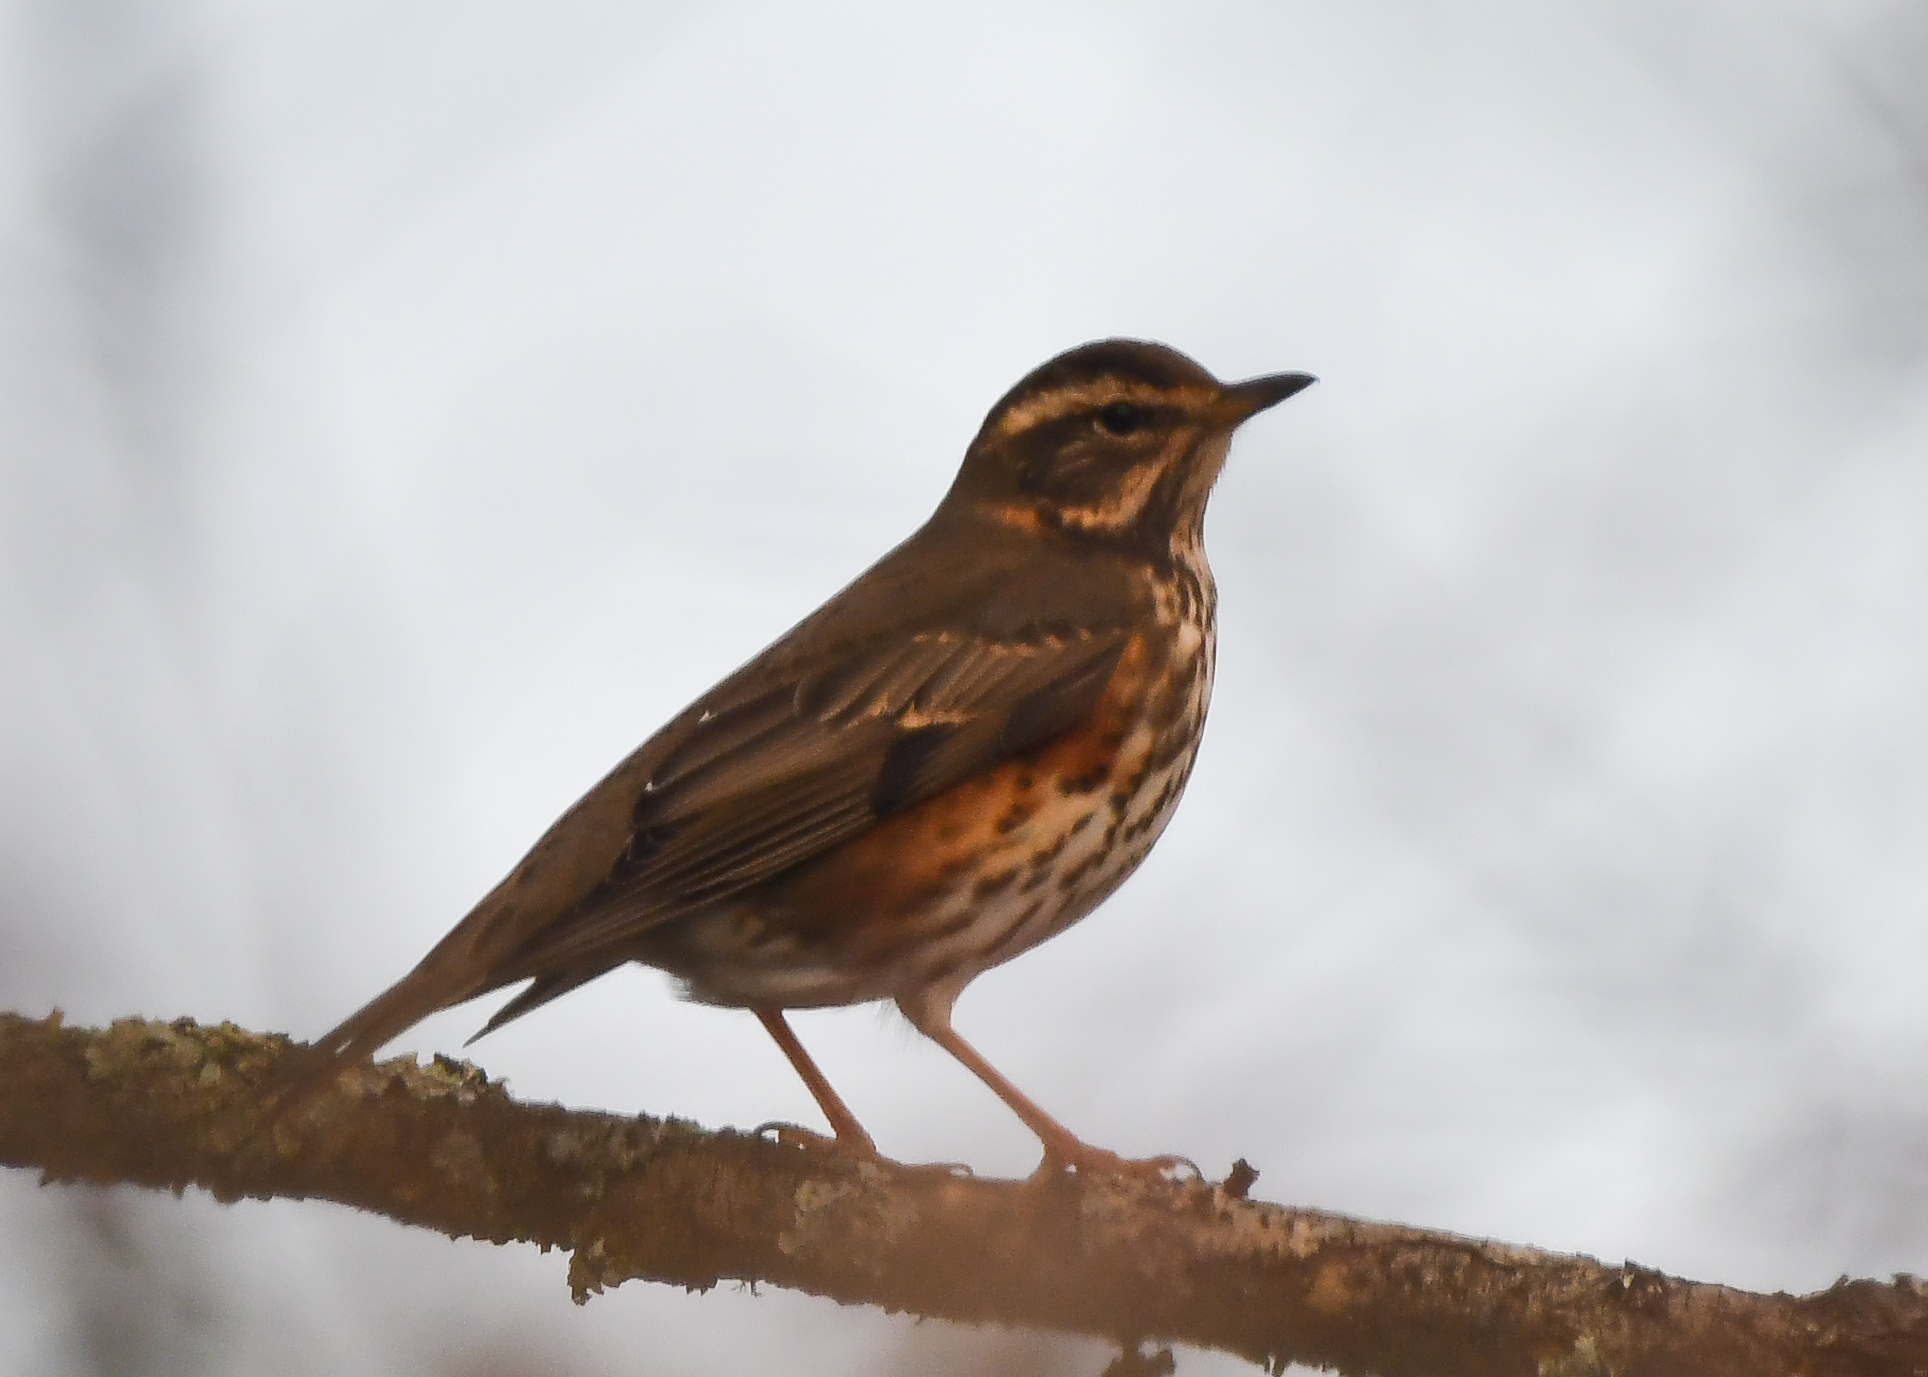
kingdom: Animalia
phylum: Chordata
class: Aves
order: Passeriformes
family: Turdidae
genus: Turdus
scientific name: Turdus iliacus
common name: Redwing
